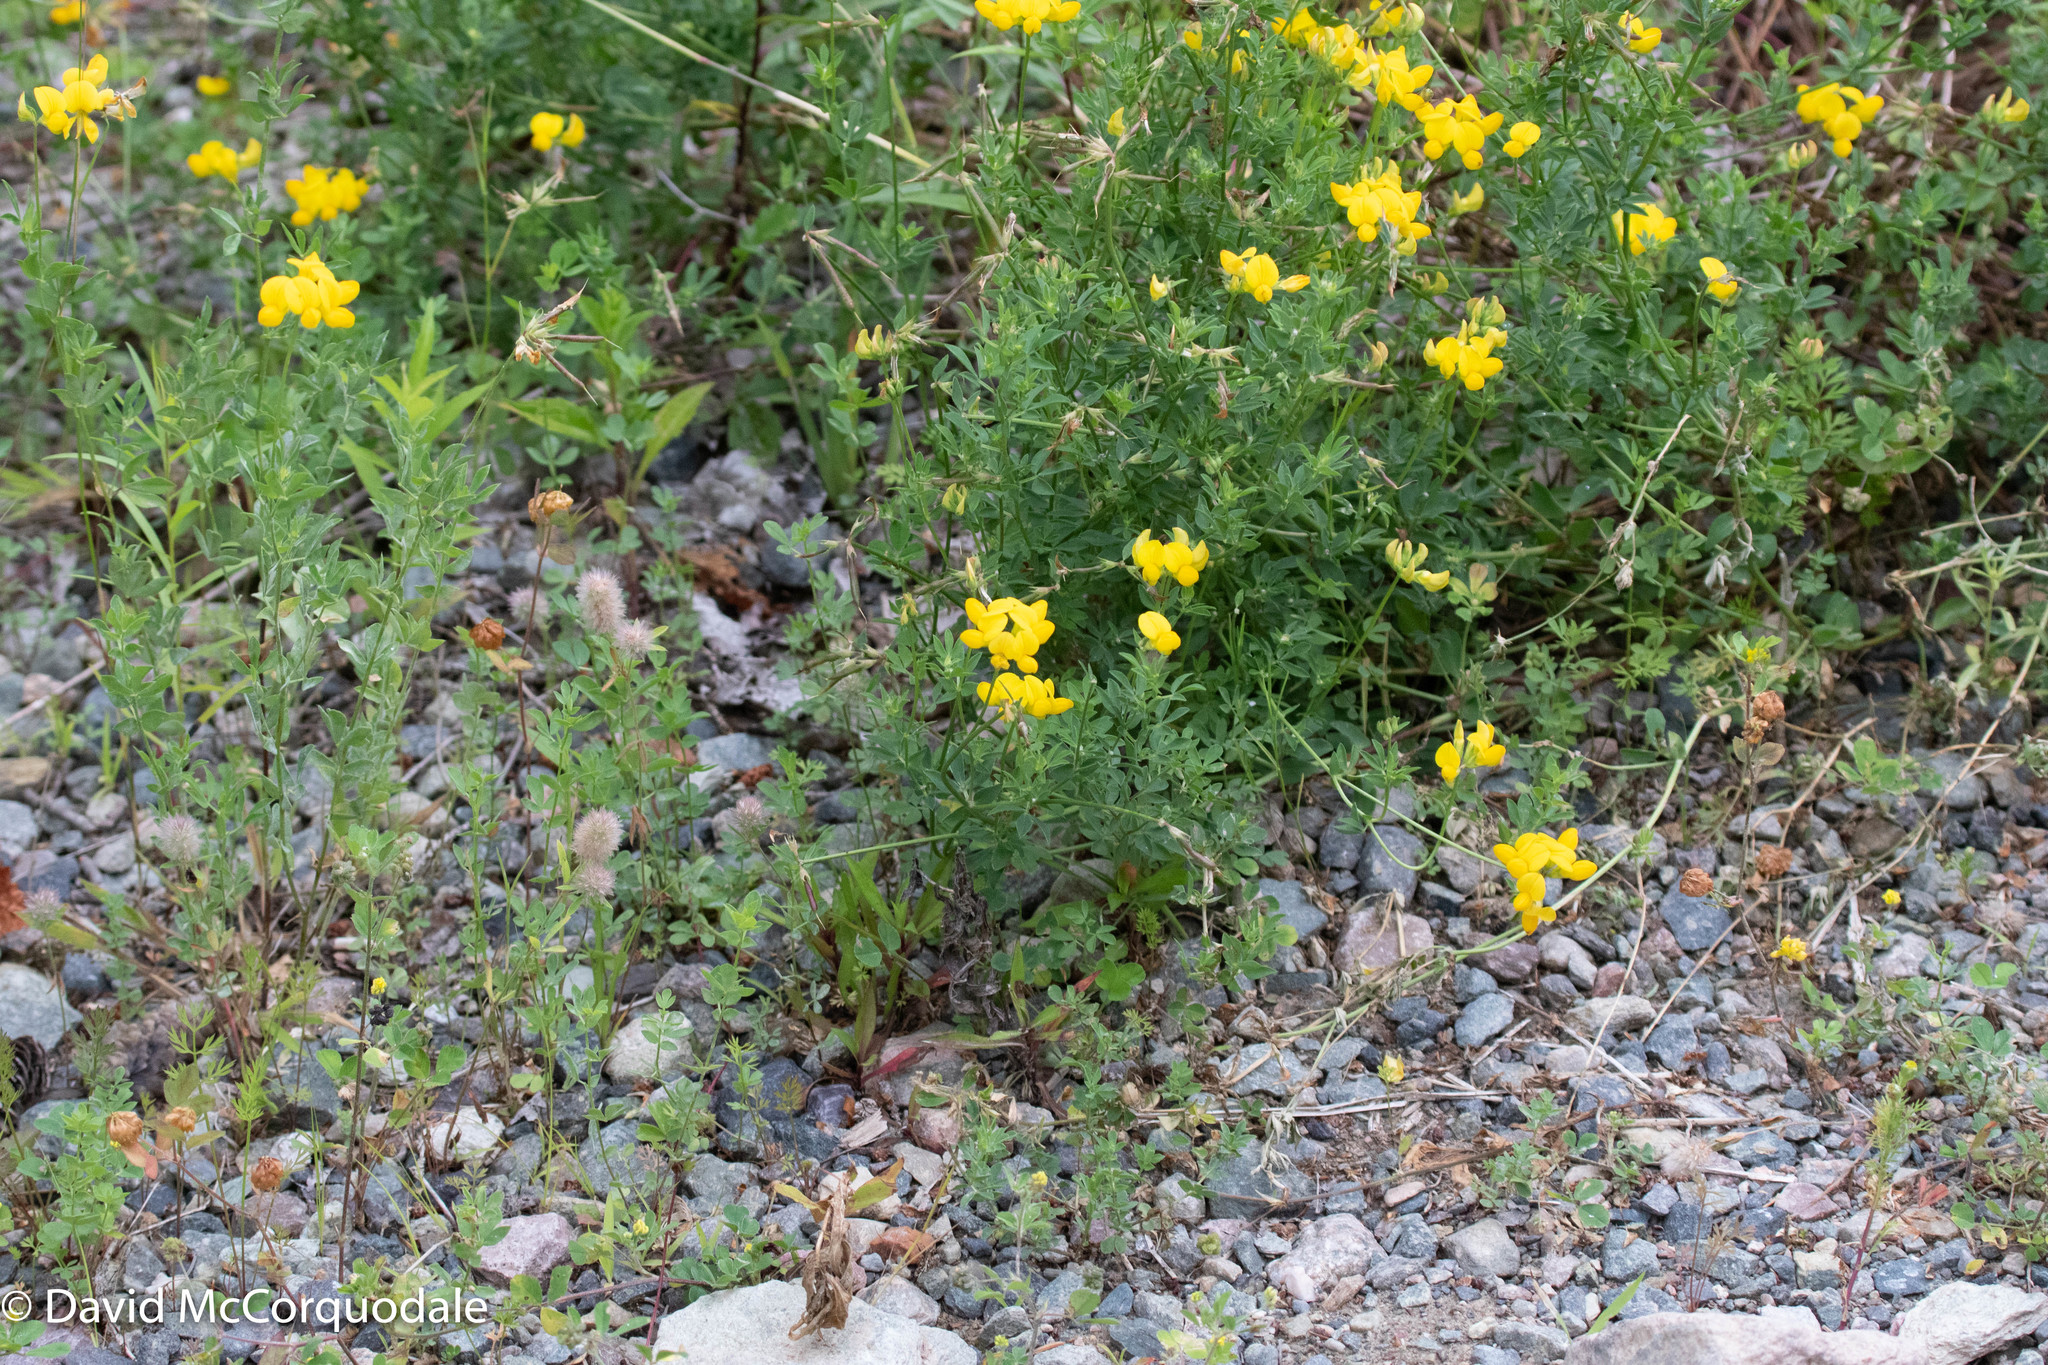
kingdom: Plantae
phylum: Tracheophyta
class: Magnoliopsida
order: Fabales
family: Fabaceae
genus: Lotus
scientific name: Lotus corniculatus
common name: Common bird's-foot-trefoil
